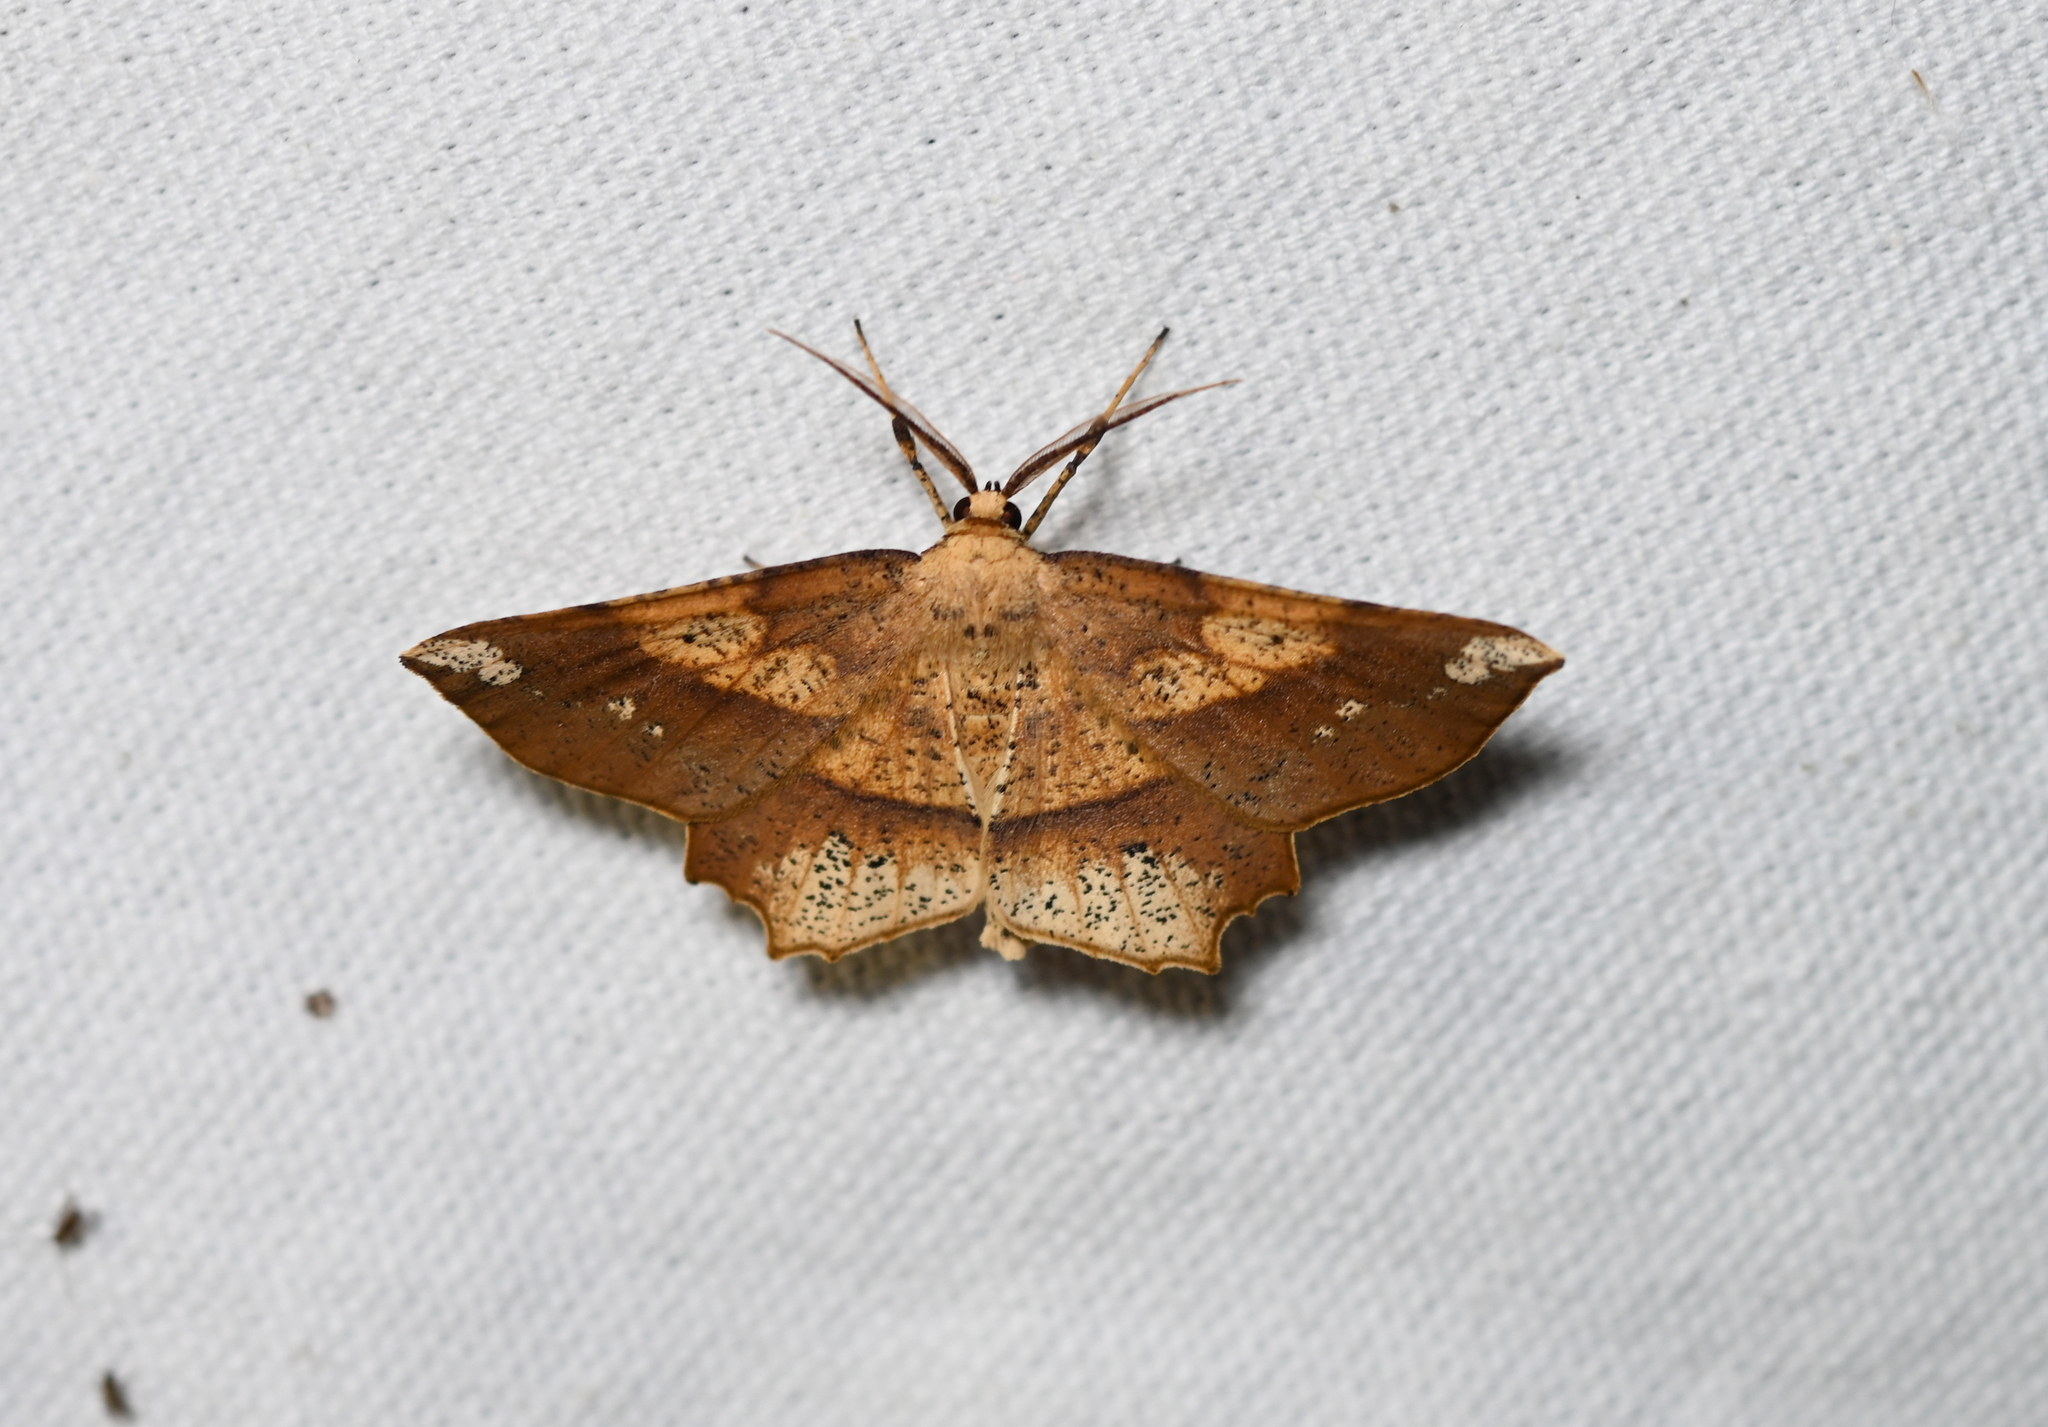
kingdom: Animalia
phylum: Arthropoda
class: Insecta
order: Lepidoptera
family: Geometridae
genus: Euchlaena
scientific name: Euchlaena amoenaria
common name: Deep yellow euchlaena
